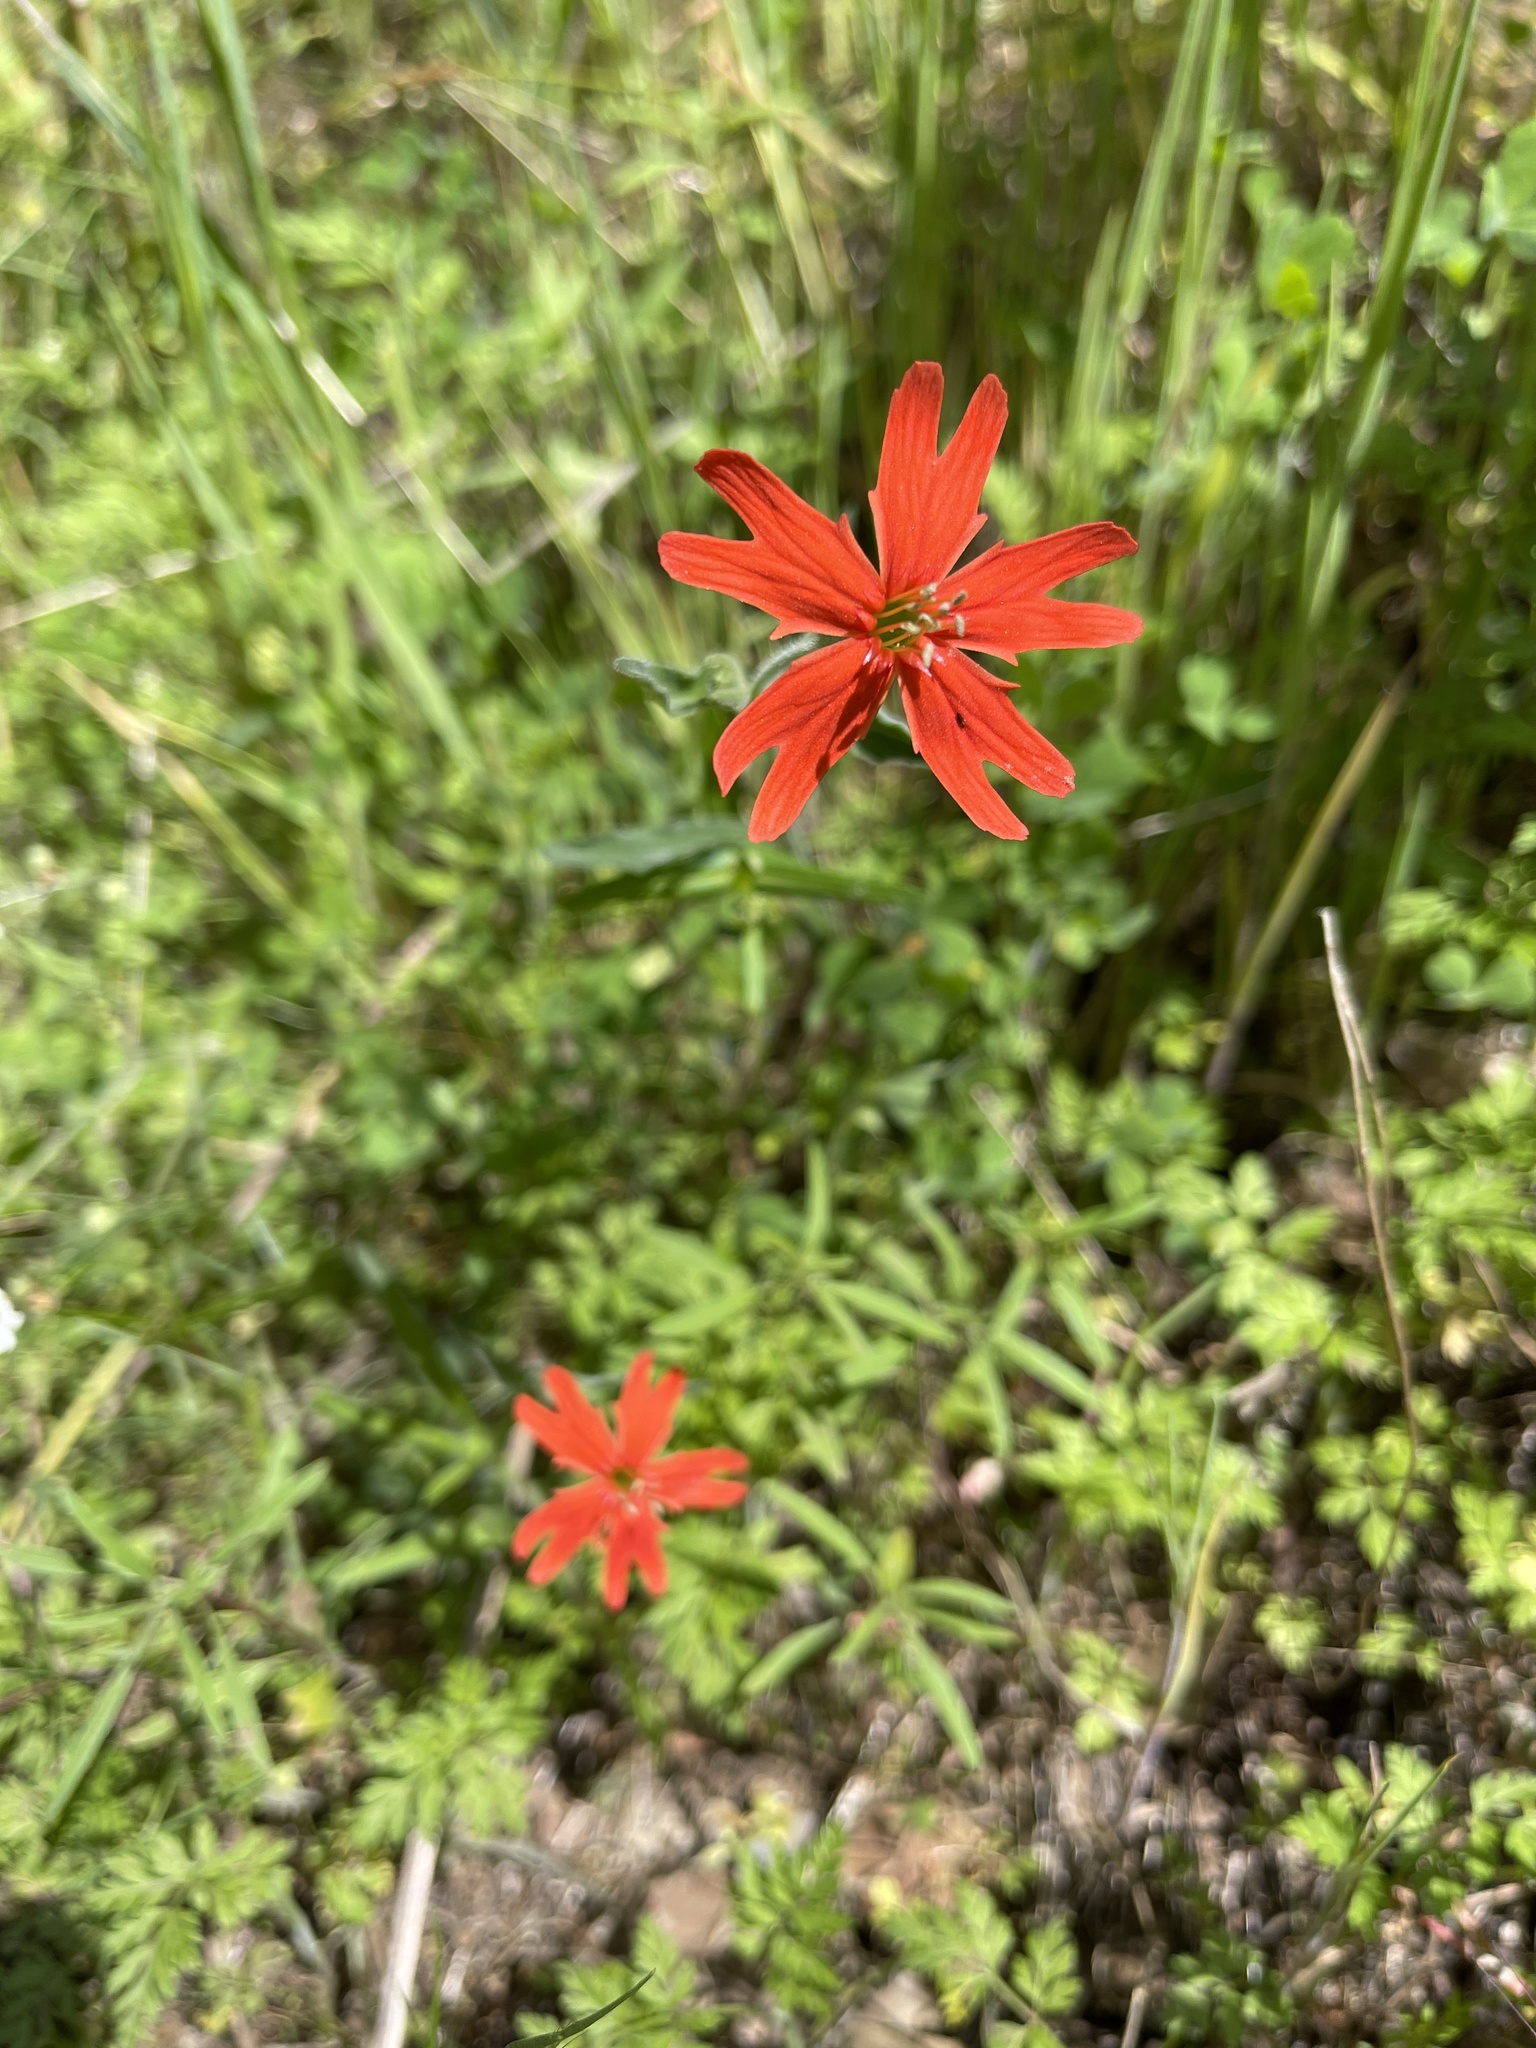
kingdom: Plantae
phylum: Tracheophyta
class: Magnoliopsida
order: Caryophyllales
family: Caryophyllaceae
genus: Silene
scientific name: Silene laciniata
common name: Indian-pink
